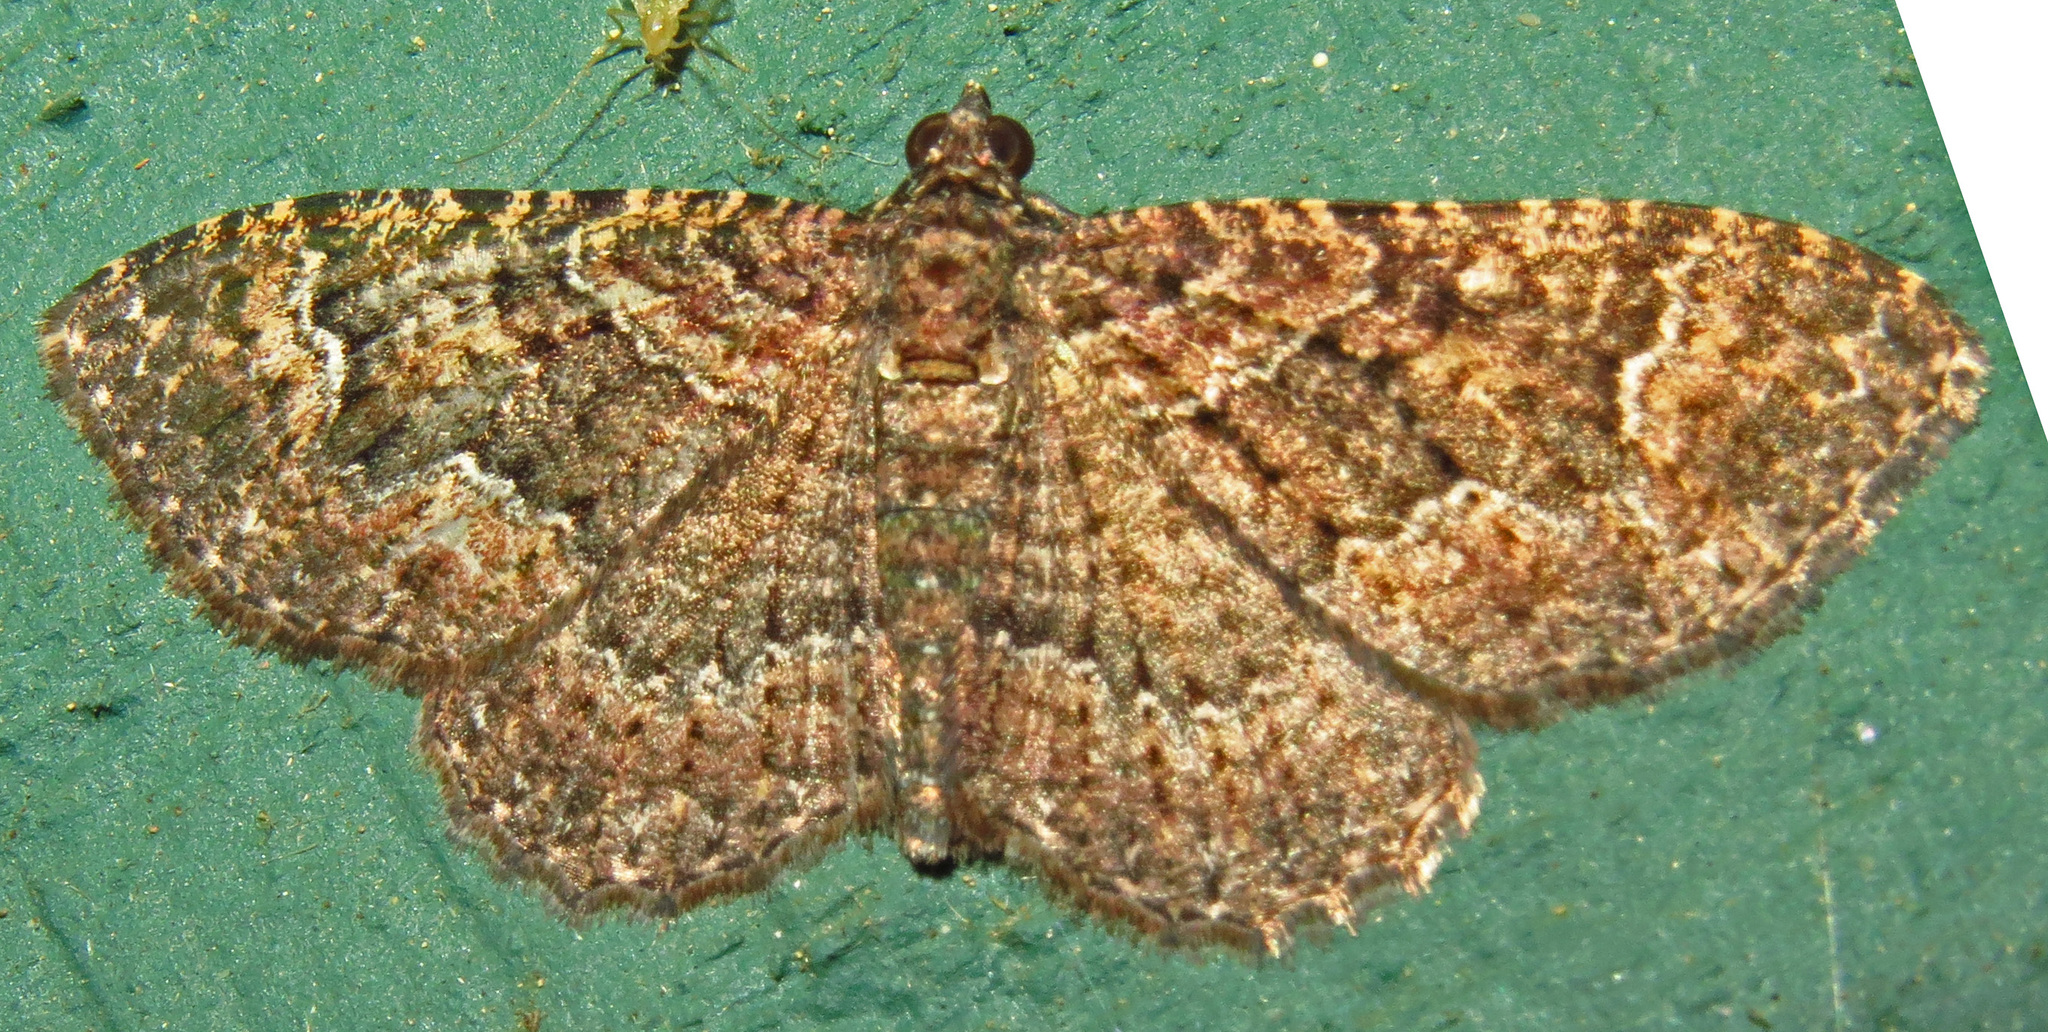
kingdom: Animalia
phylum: Arthropoda
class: Insecta
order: Lepidoptera
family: Geometridae
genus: Disclisioprocta
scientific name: Disclisioprocta stellata
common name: Somber carpet
